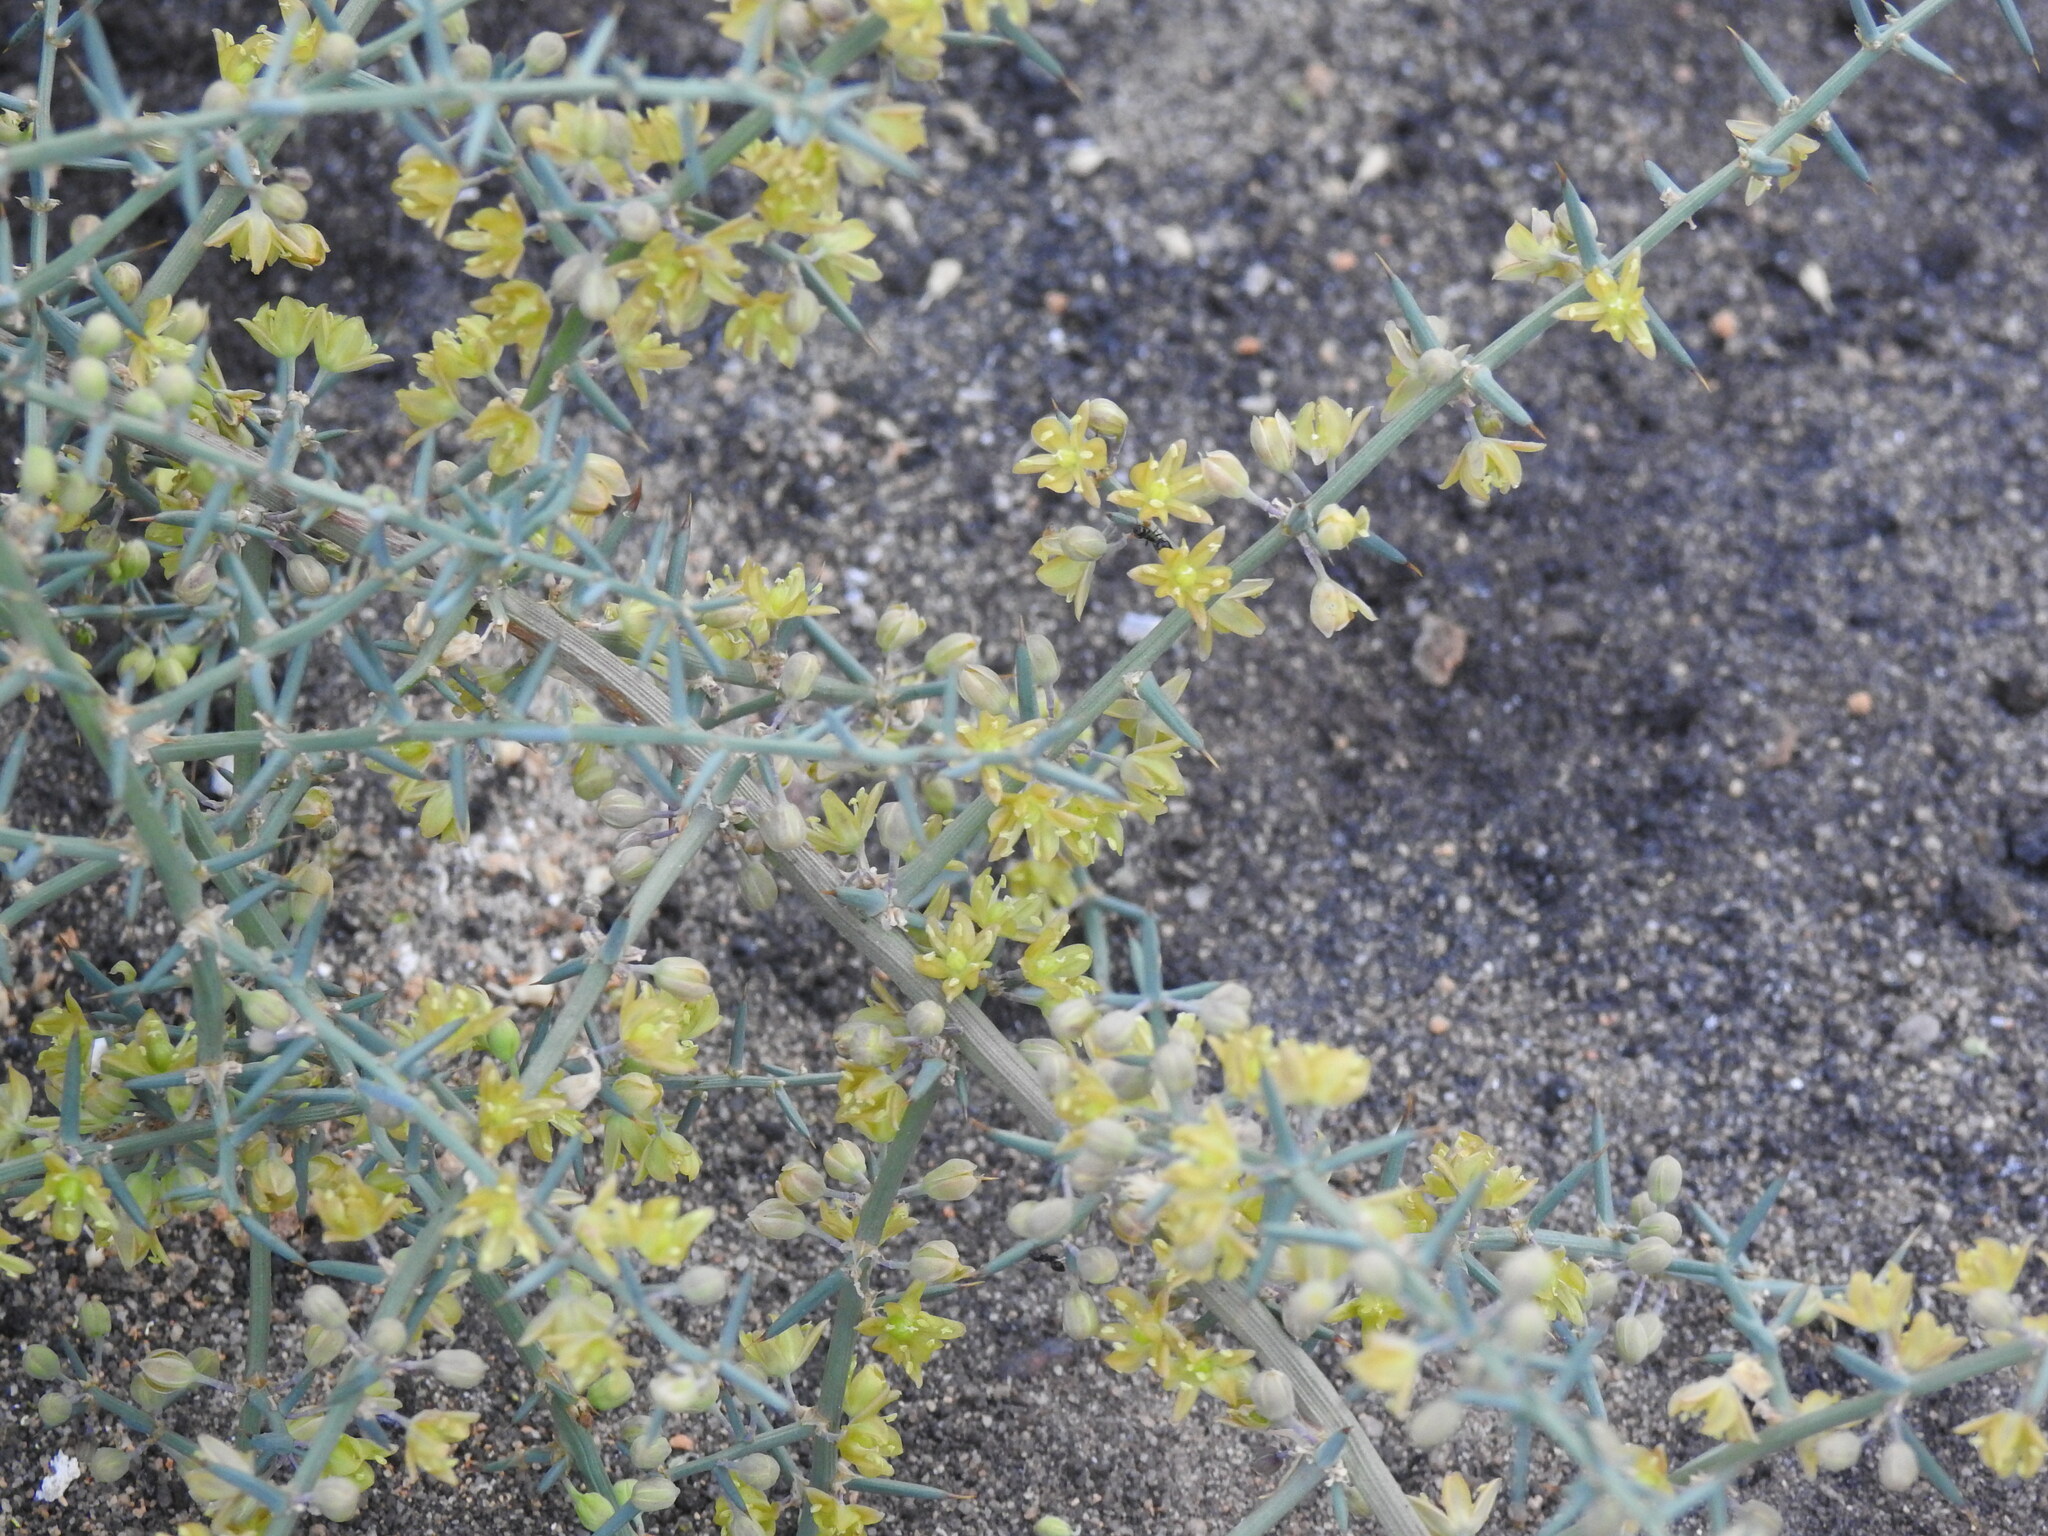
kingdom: Plantae
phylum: Tracheophyta
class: Liliopsida
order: Asparagales
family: Asparagaceae
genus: Asparagus
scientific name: Asparagus aphyllus
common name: Mediterranean asparagus
